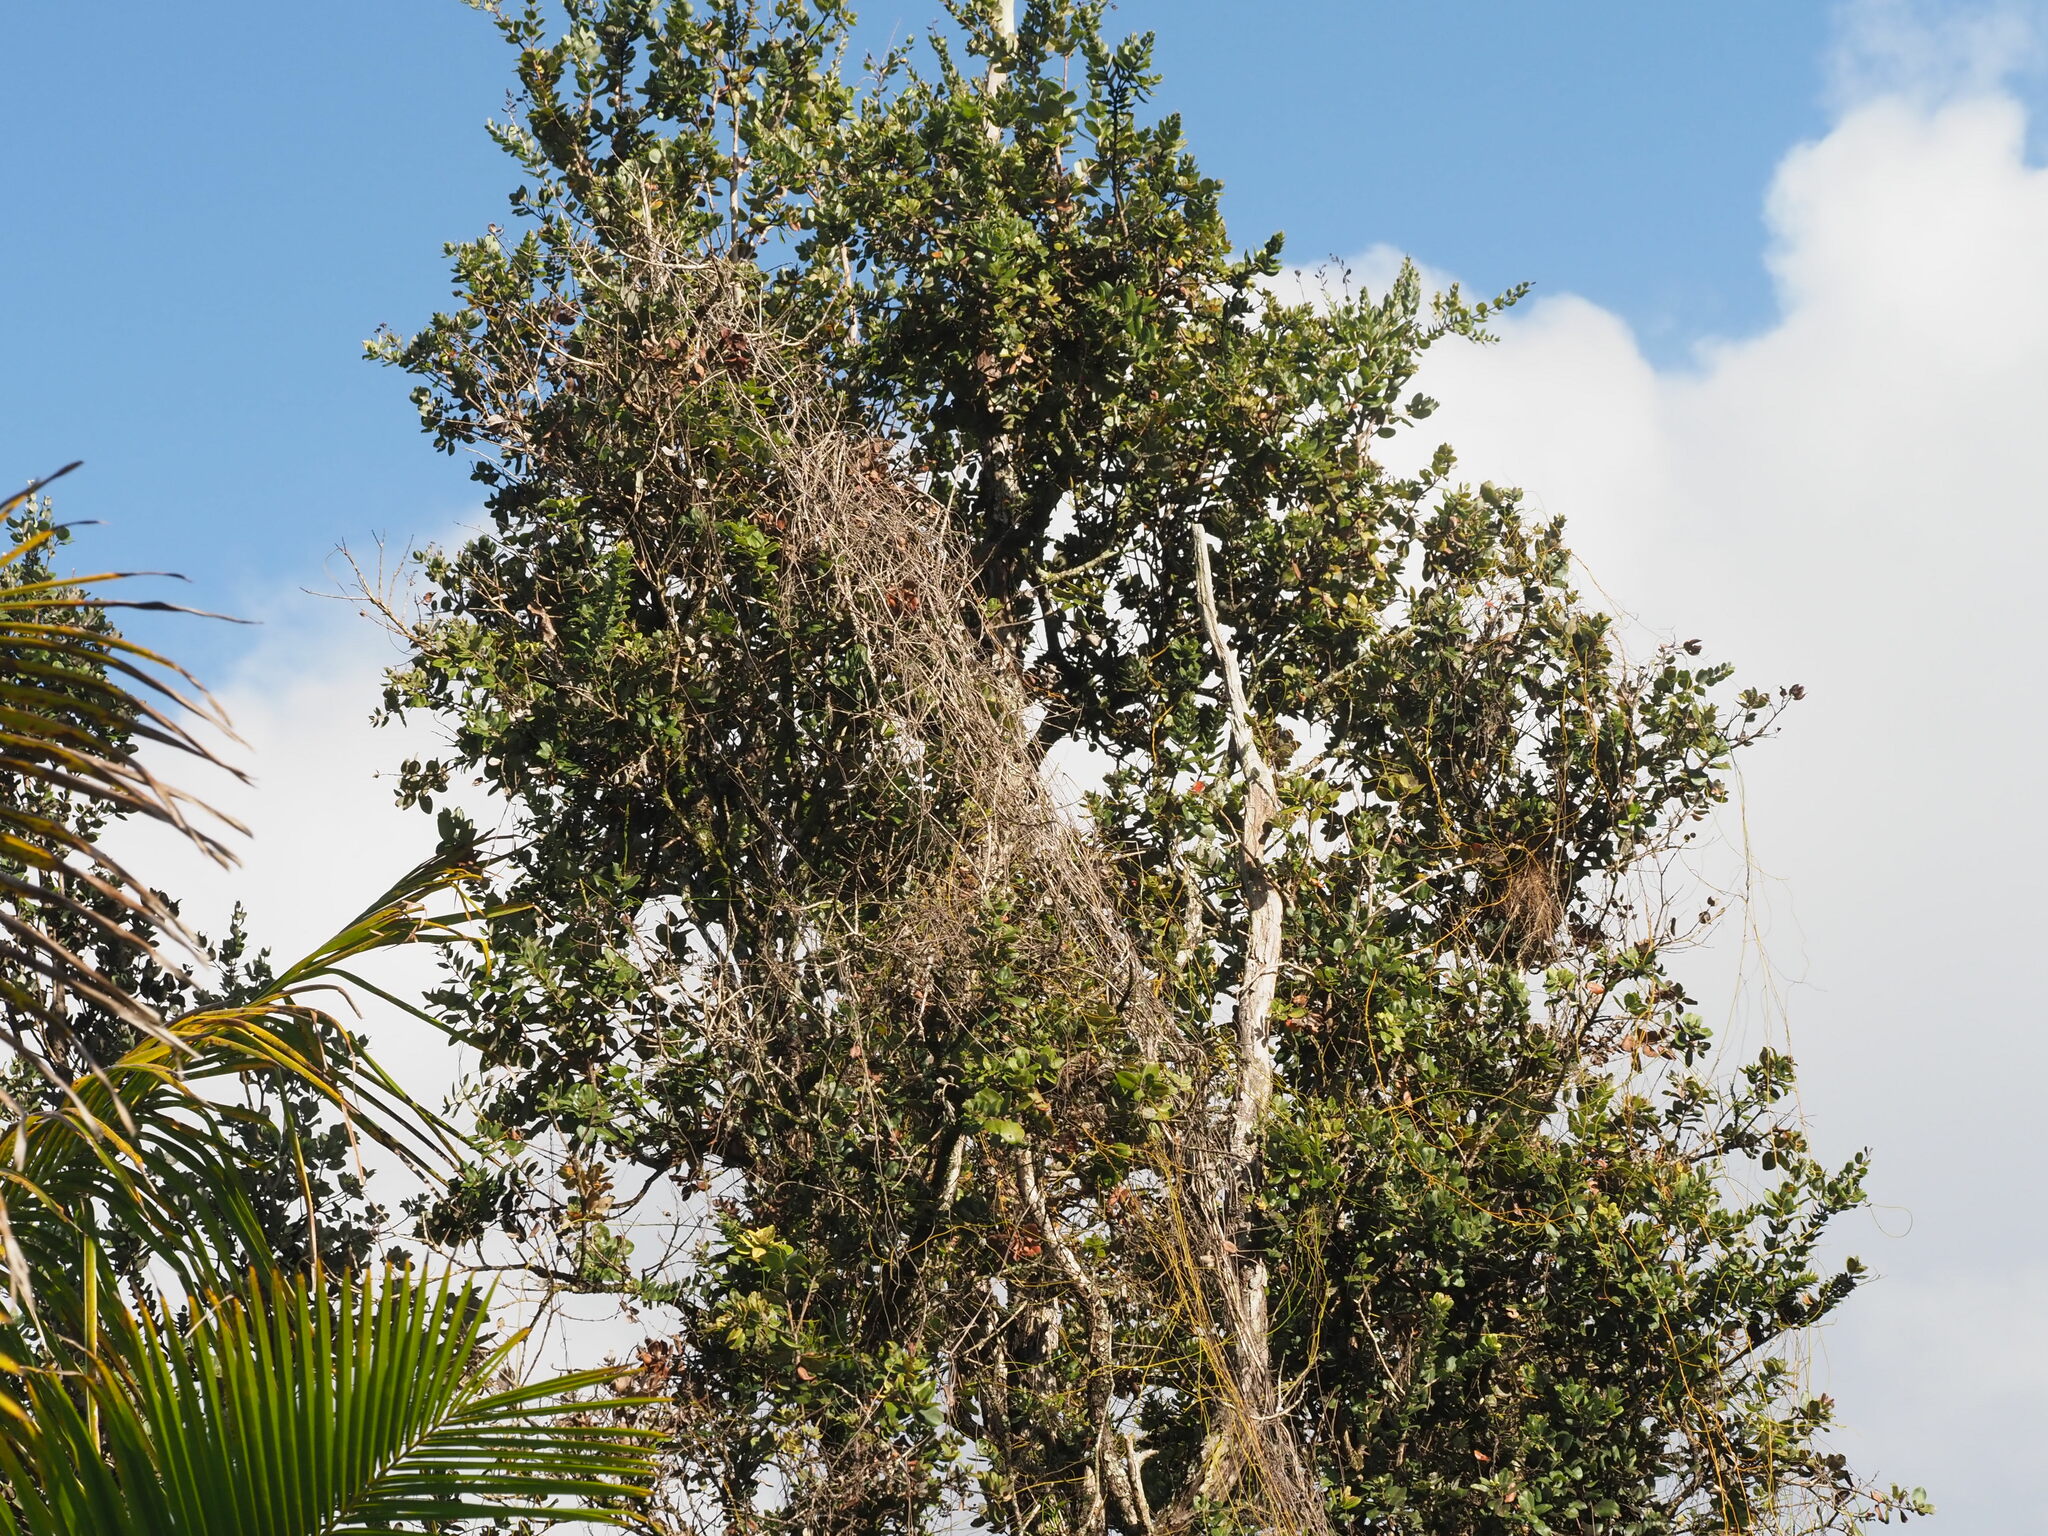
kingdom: Plantae
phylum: Tracheophyta
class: Magnoliopsida
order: Laurales
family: Lauraceae
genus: Cassytha
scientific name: Cassytha filiformis
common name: Dodder-laurel
